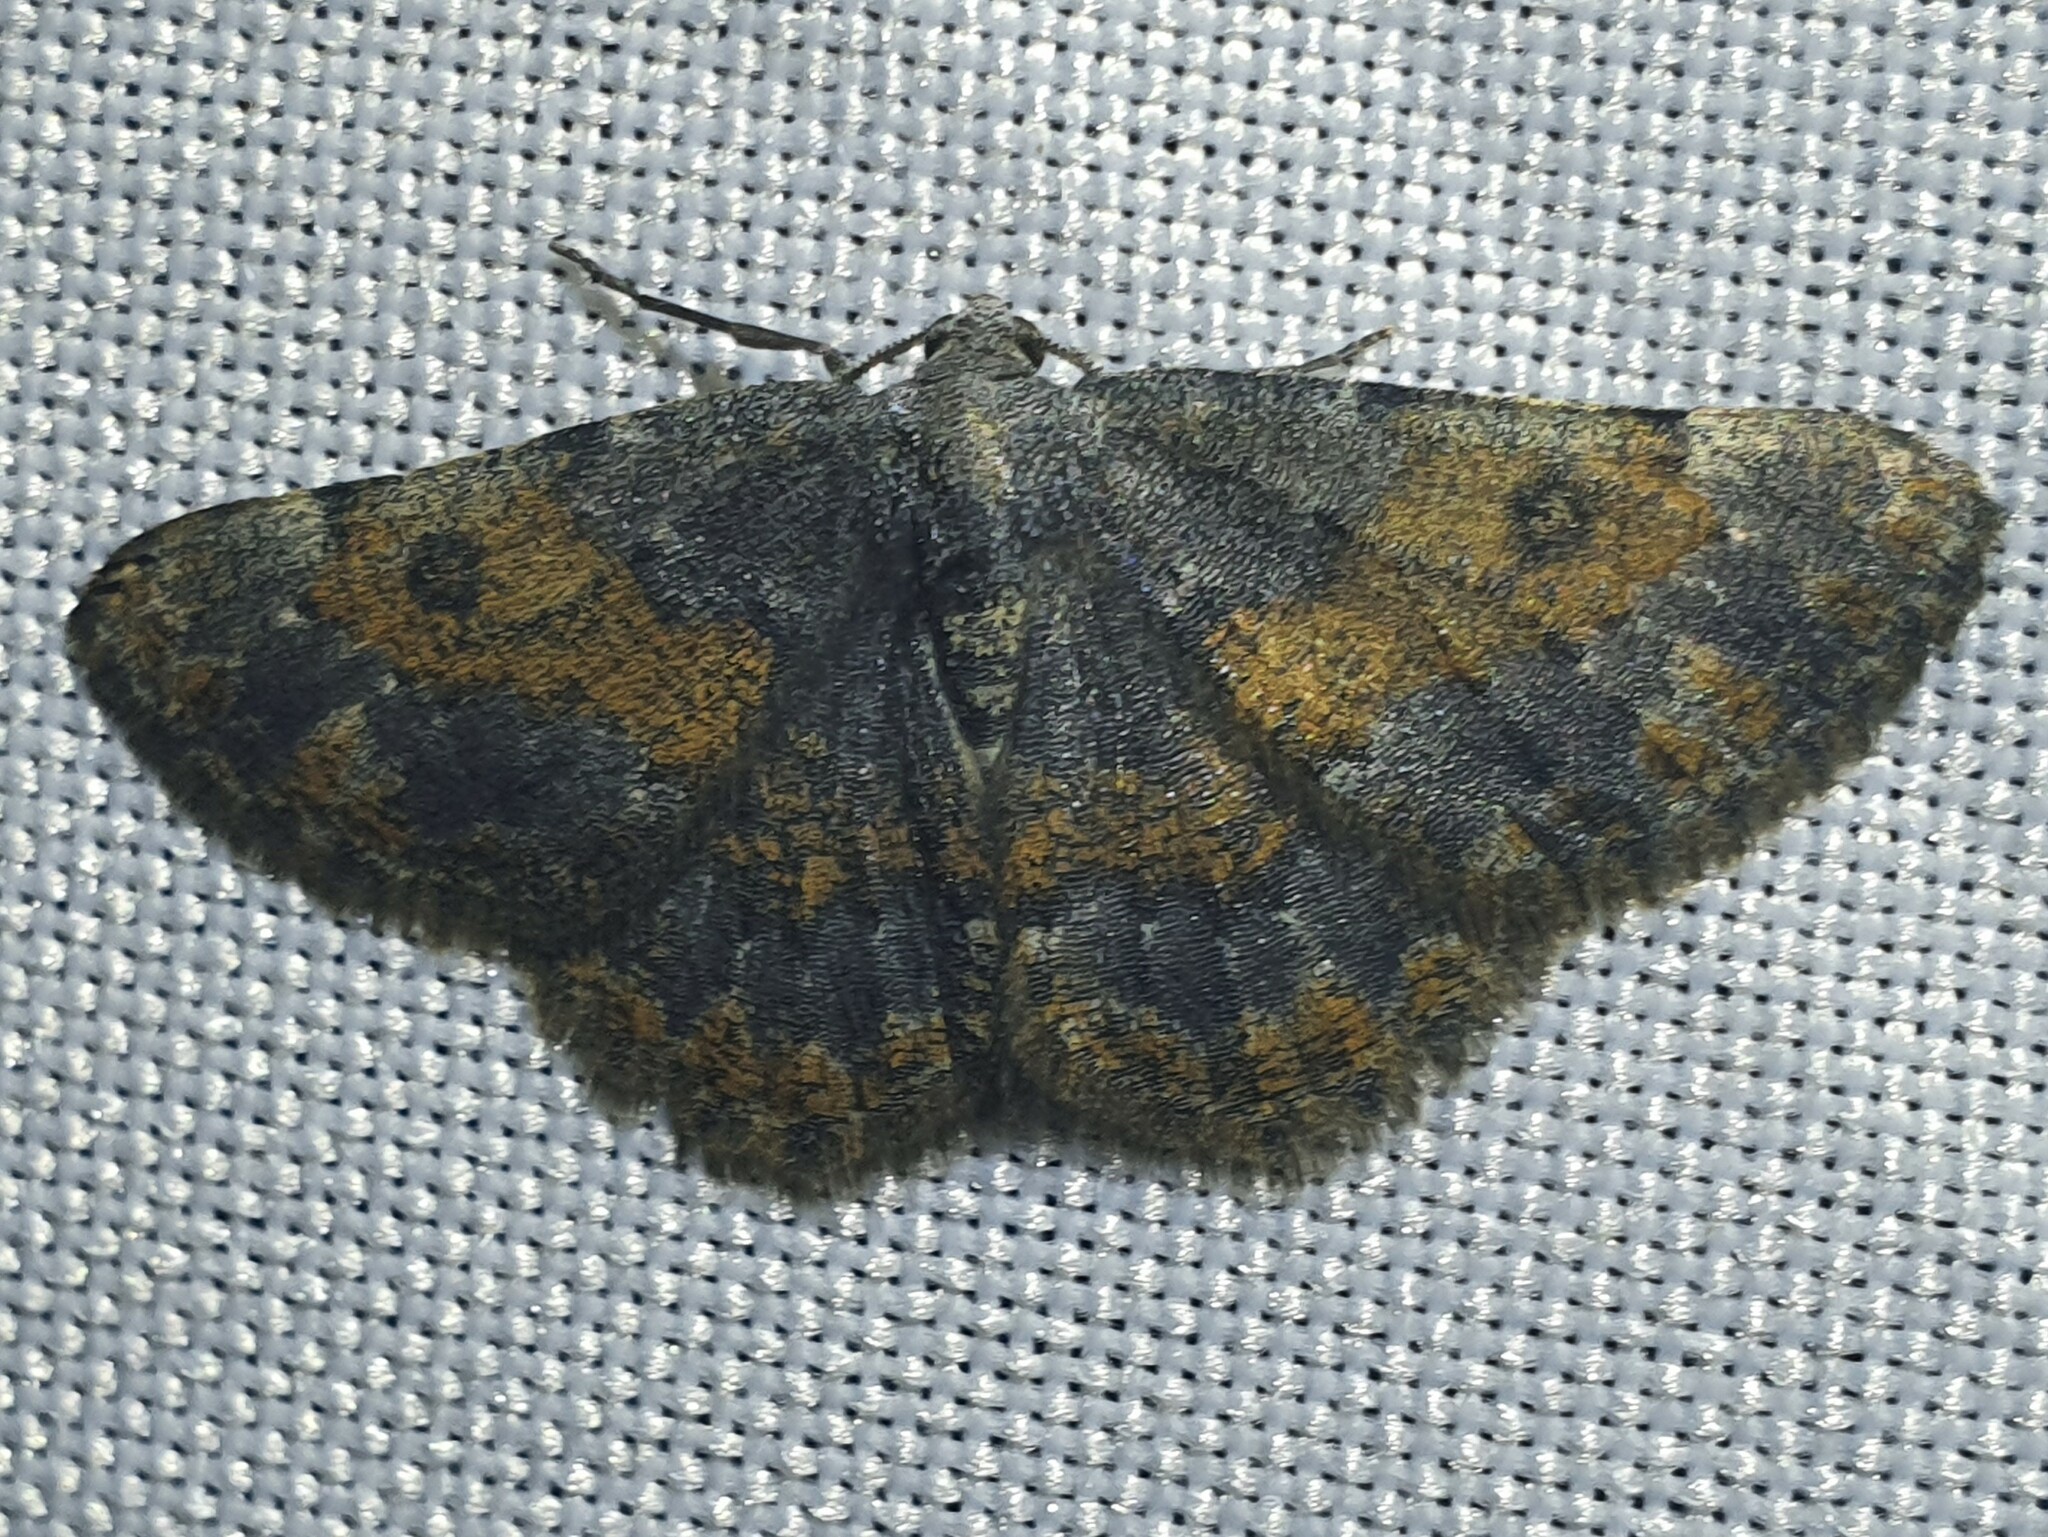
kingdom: Animalia
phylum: Arthropoda
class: Insecta
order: Lepidoptera
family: Geometridae
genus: Charissa
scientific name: Charissa mucidaria
